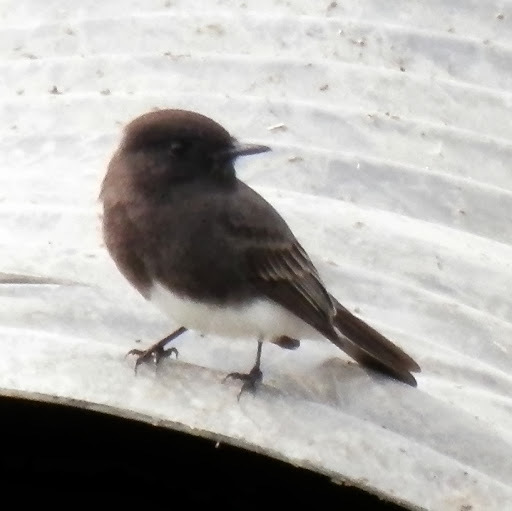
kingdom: Animalia
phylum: Chordata
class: Aves
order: Passeriformes
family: Tyrannidae
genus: Sayornis
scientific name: Sayornis nigricans
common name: Black phoebe
